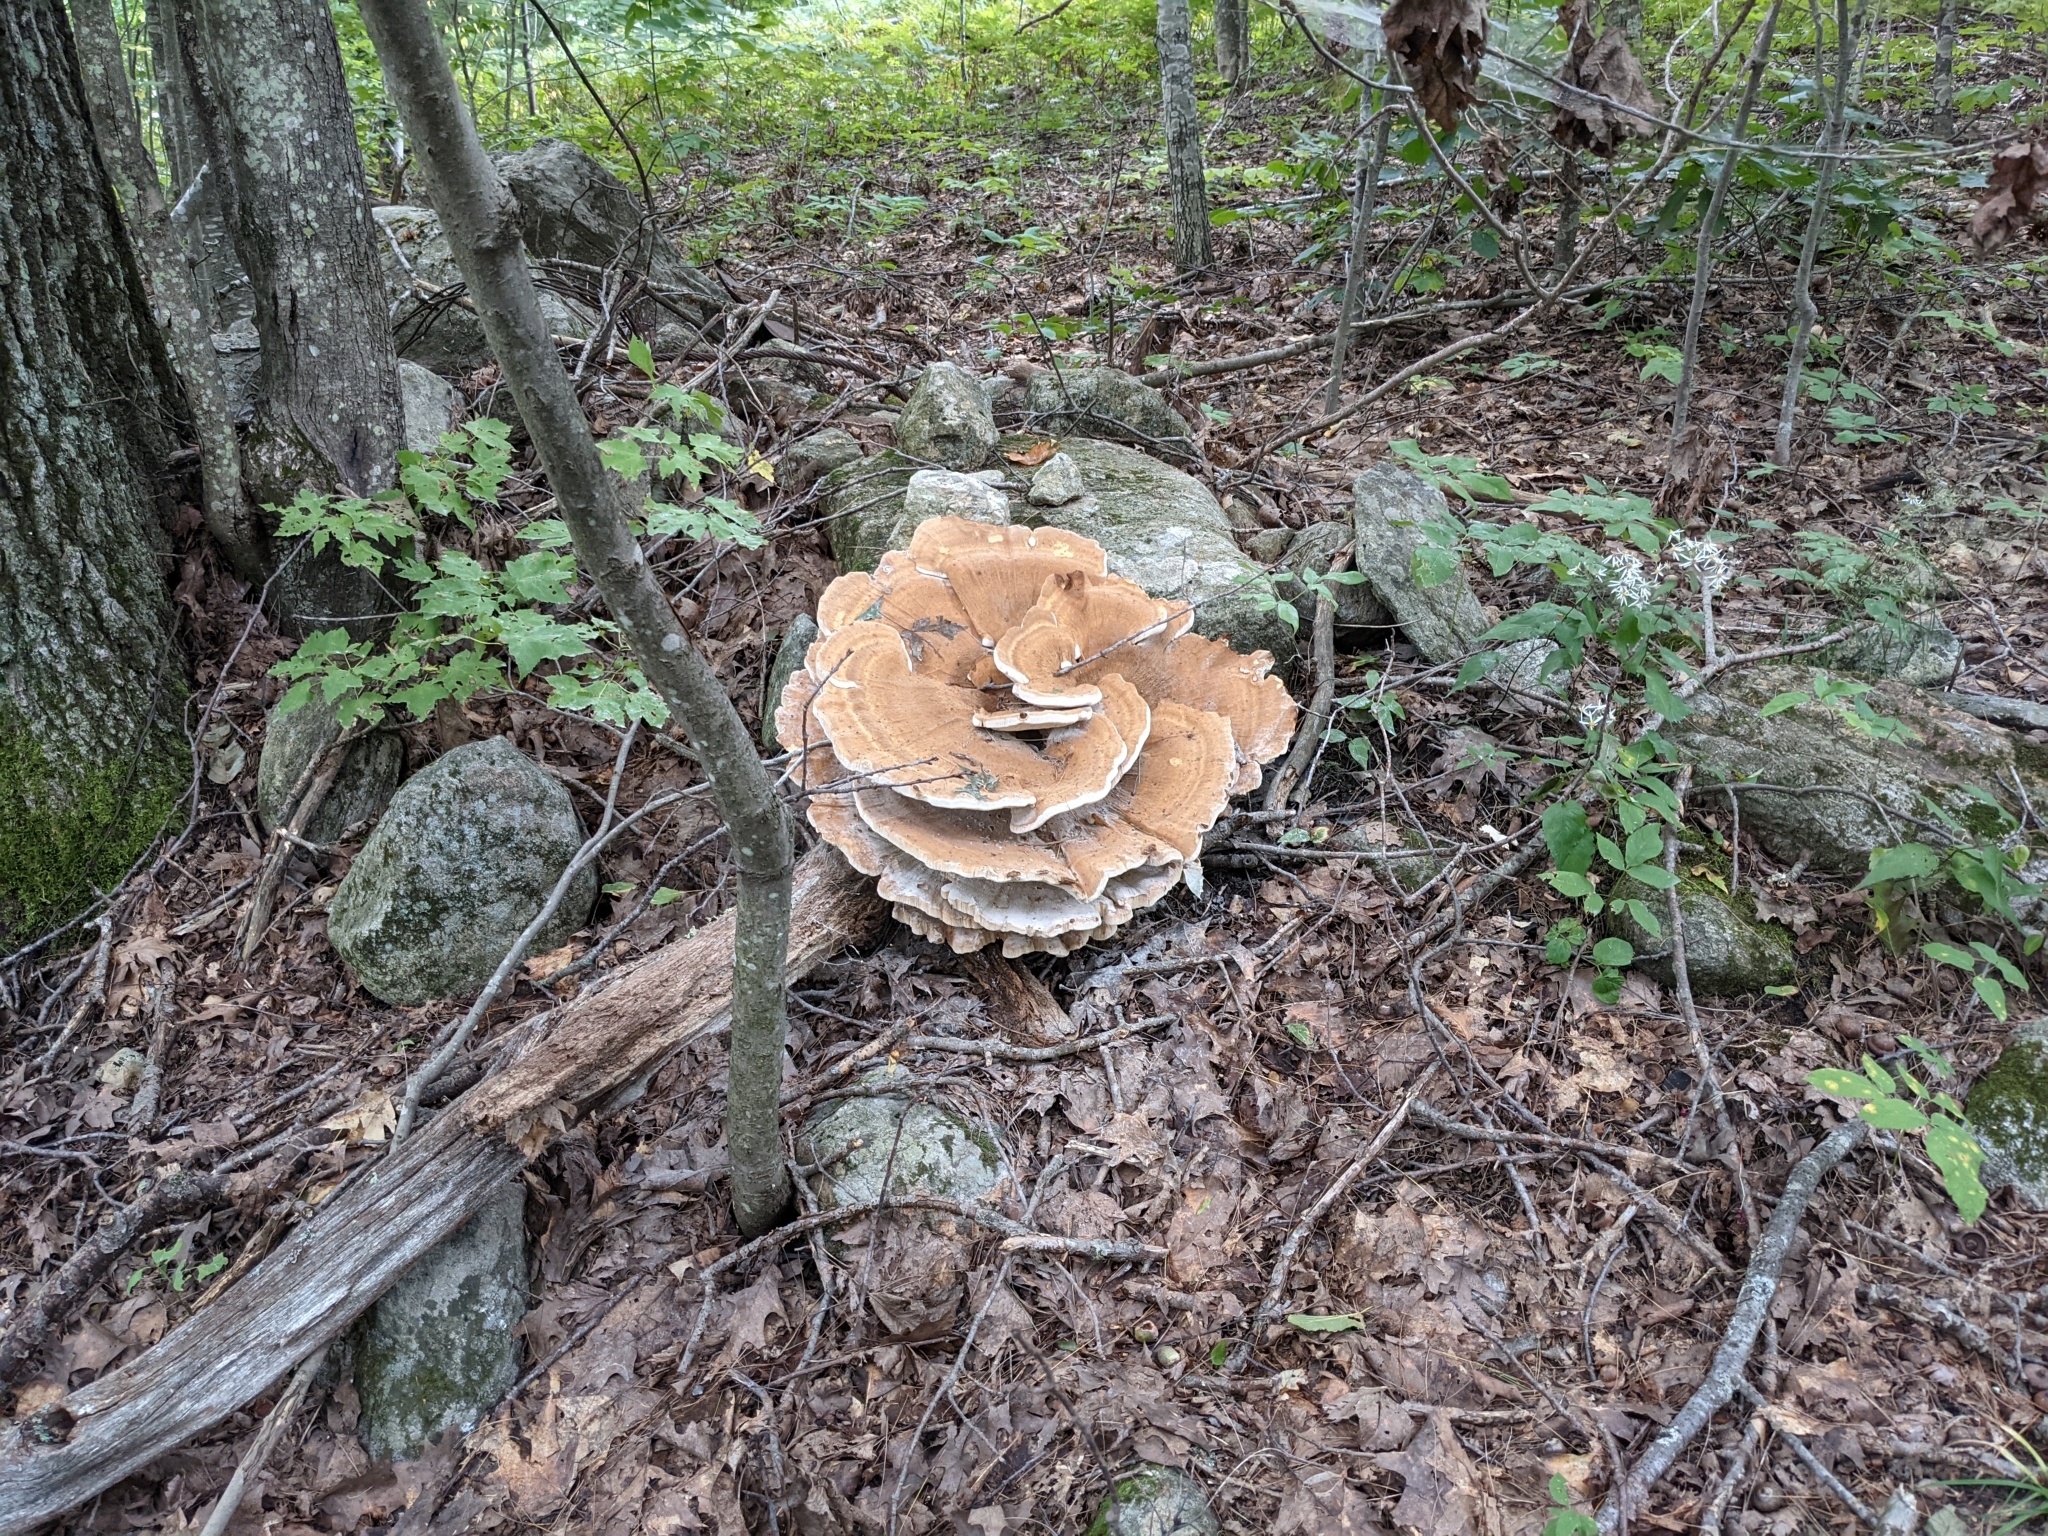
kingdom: Fungi
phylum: Basidiomycota
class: Agaricomycetes
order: Russulales
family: Bondarzewiaceae
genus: Bondarzewia
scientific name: Bondarzewia berkeleyi
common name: Berkeley's polypore
